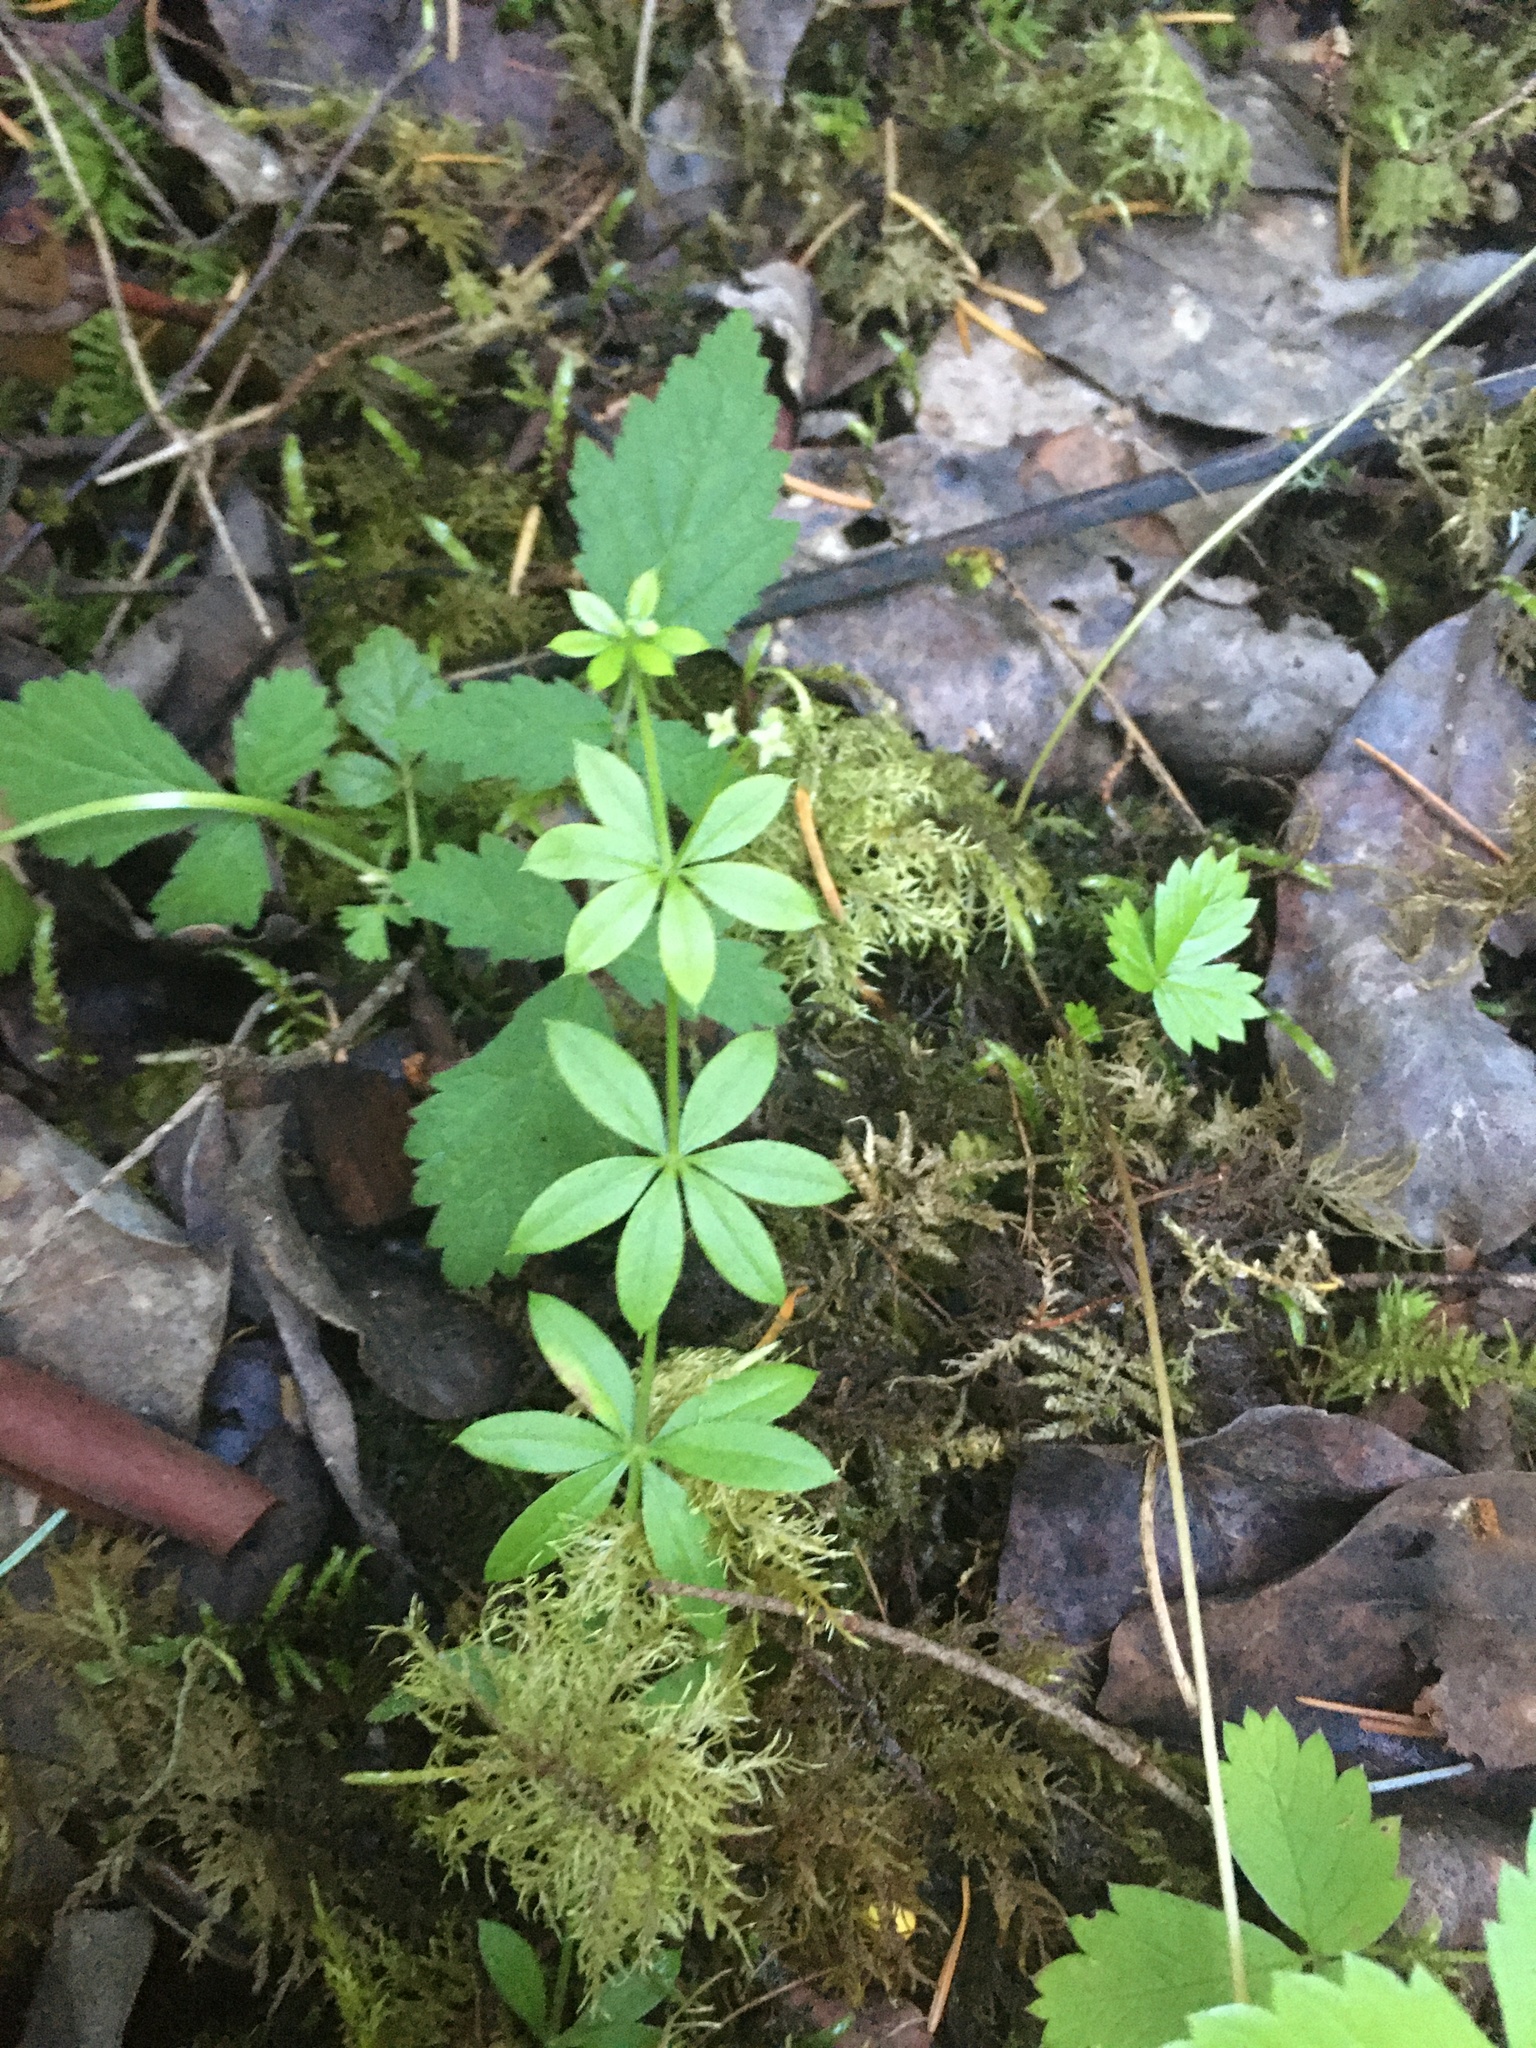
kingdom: Plantae
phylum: Tracheophyta
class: Magnoliopsida
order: Gentianales
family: Rubiaceae
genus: Galium
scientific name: Galium triflorum
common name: Fragrant bedstraw
